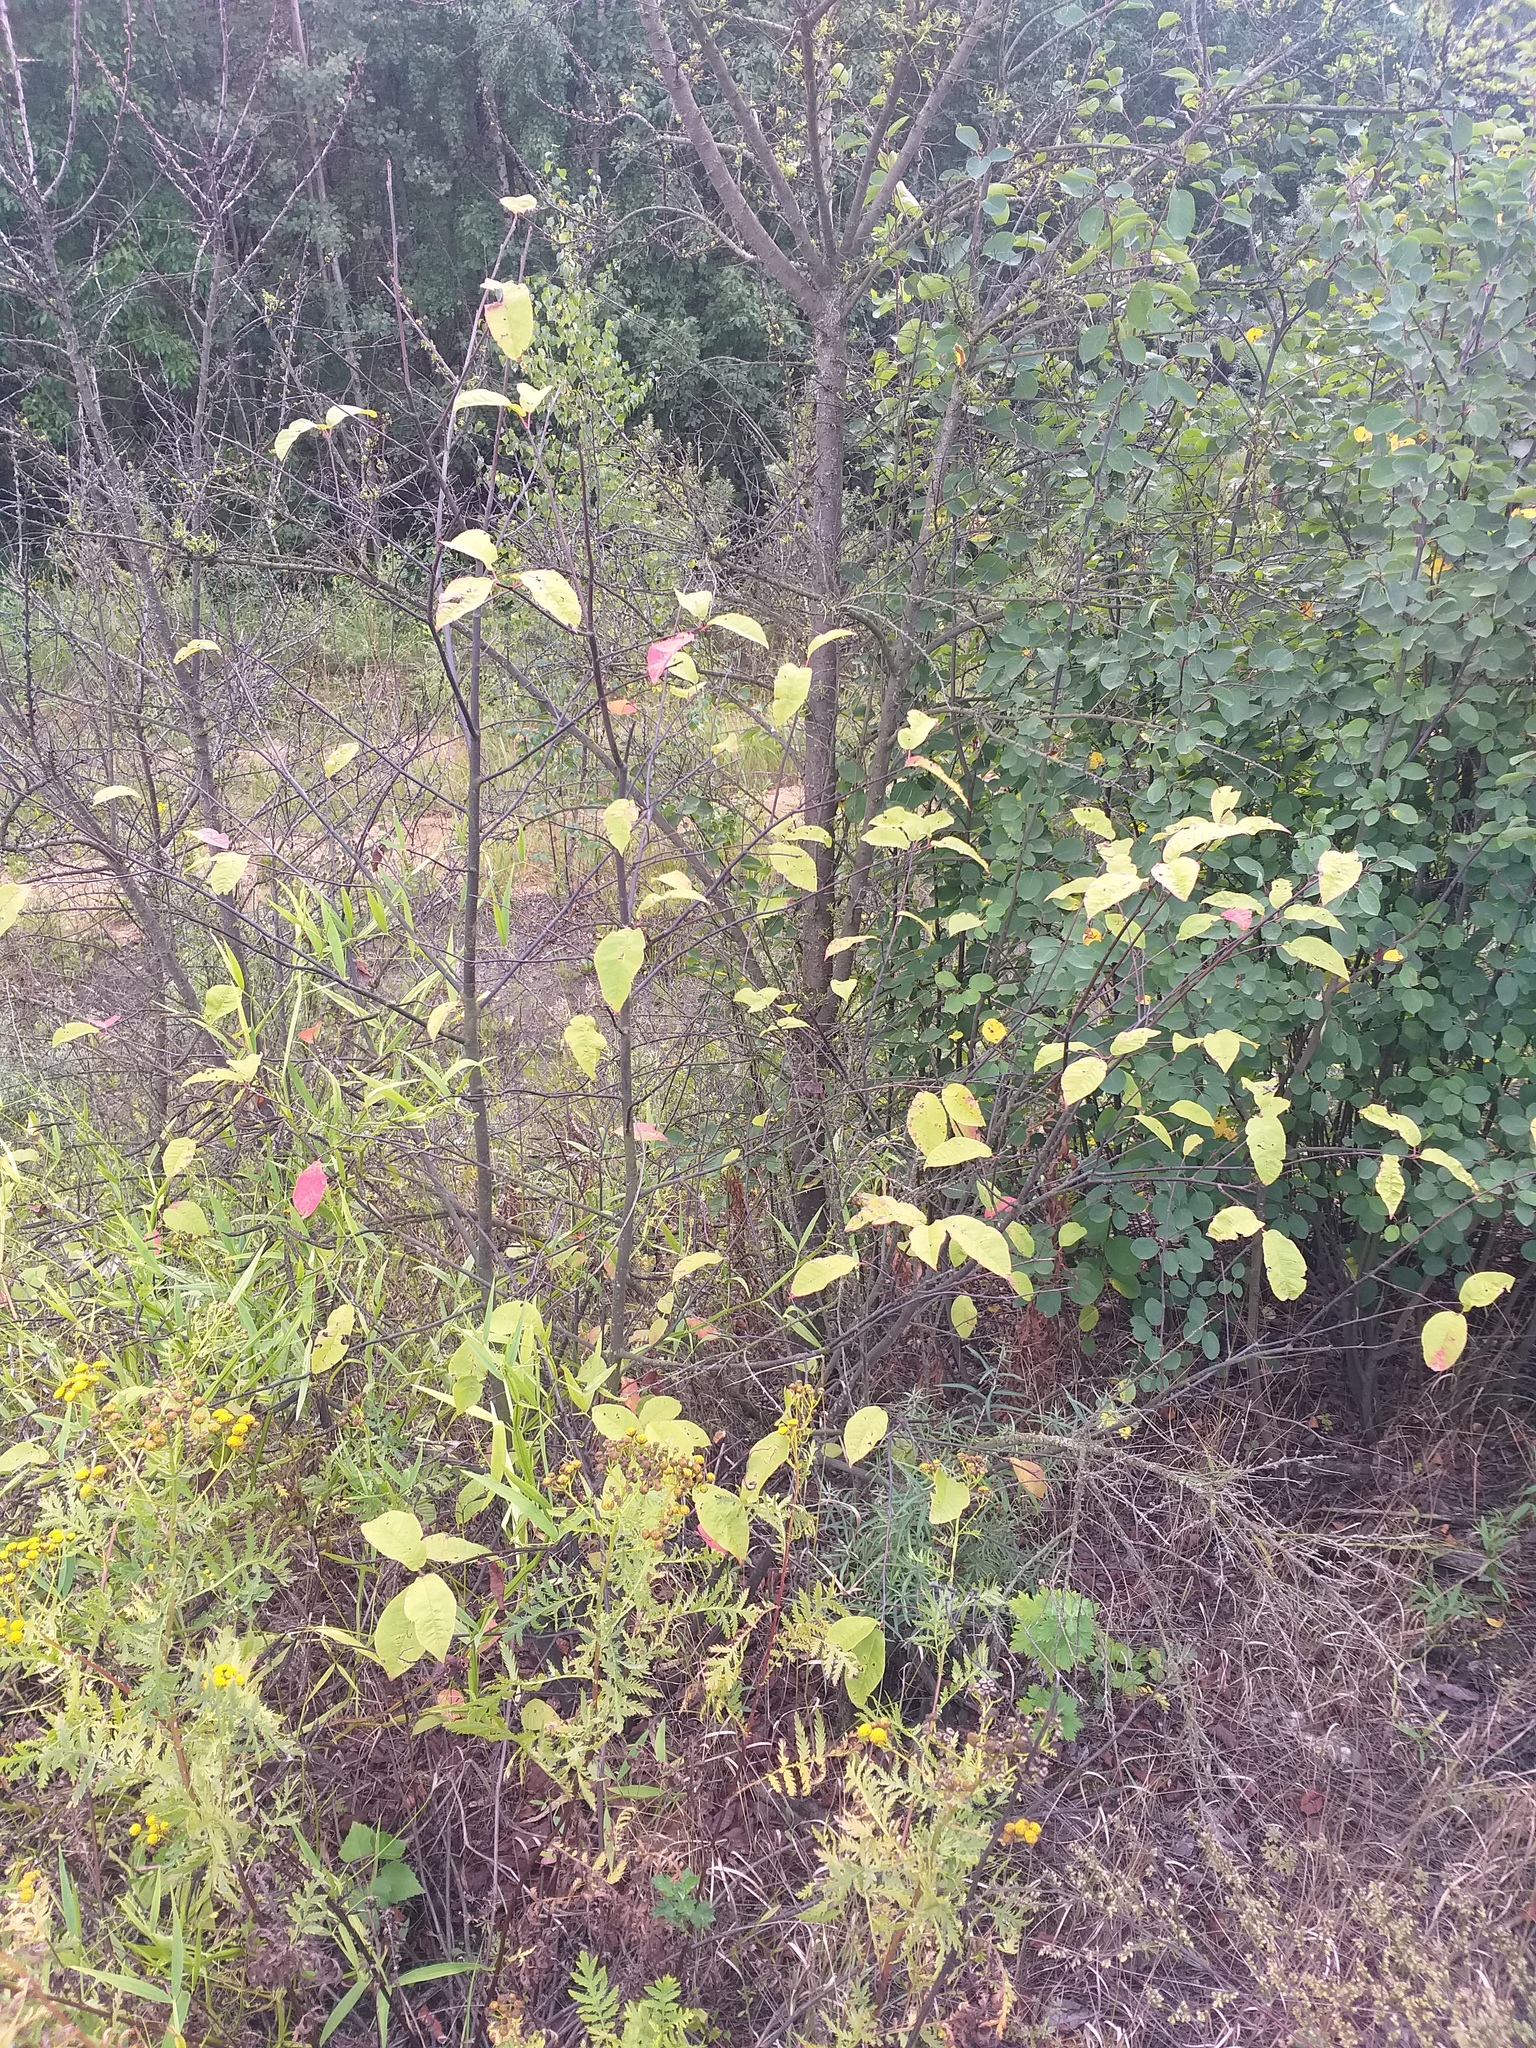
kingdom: Plantae
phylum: Tracheophyta
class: Magnoliopsida
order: Rosales
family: Rosaceae
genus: Prunus
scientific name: Prunus padus
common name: Bird cherry
